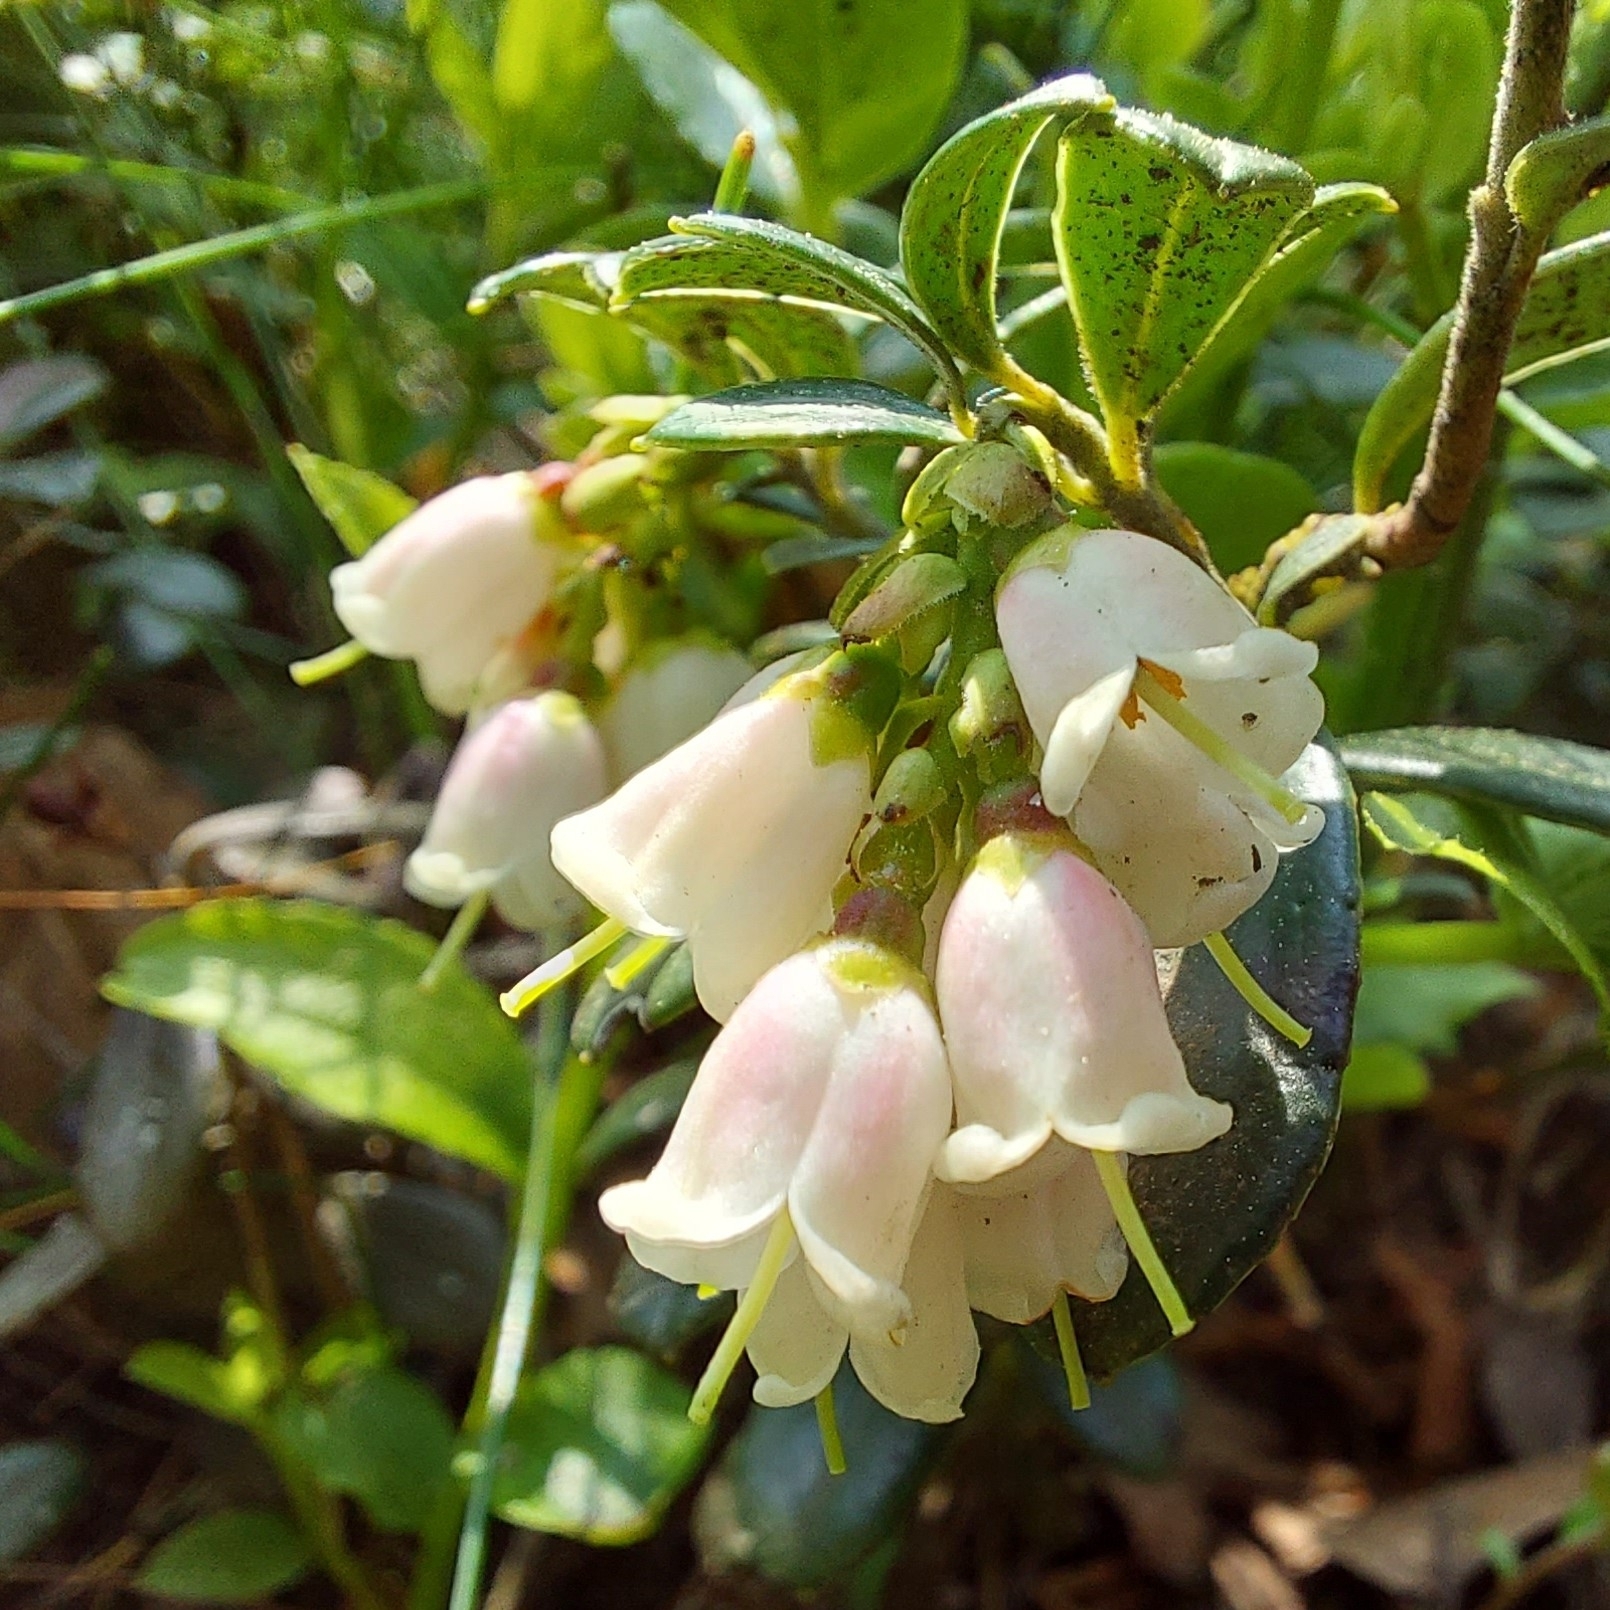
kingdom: Plantae
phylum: Tracheophyta
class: Magnoliopsida
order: Ericales
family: Ericaceae
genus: Vaccinium
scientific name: Vaccinium vitis-idaea
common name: Cowberry
